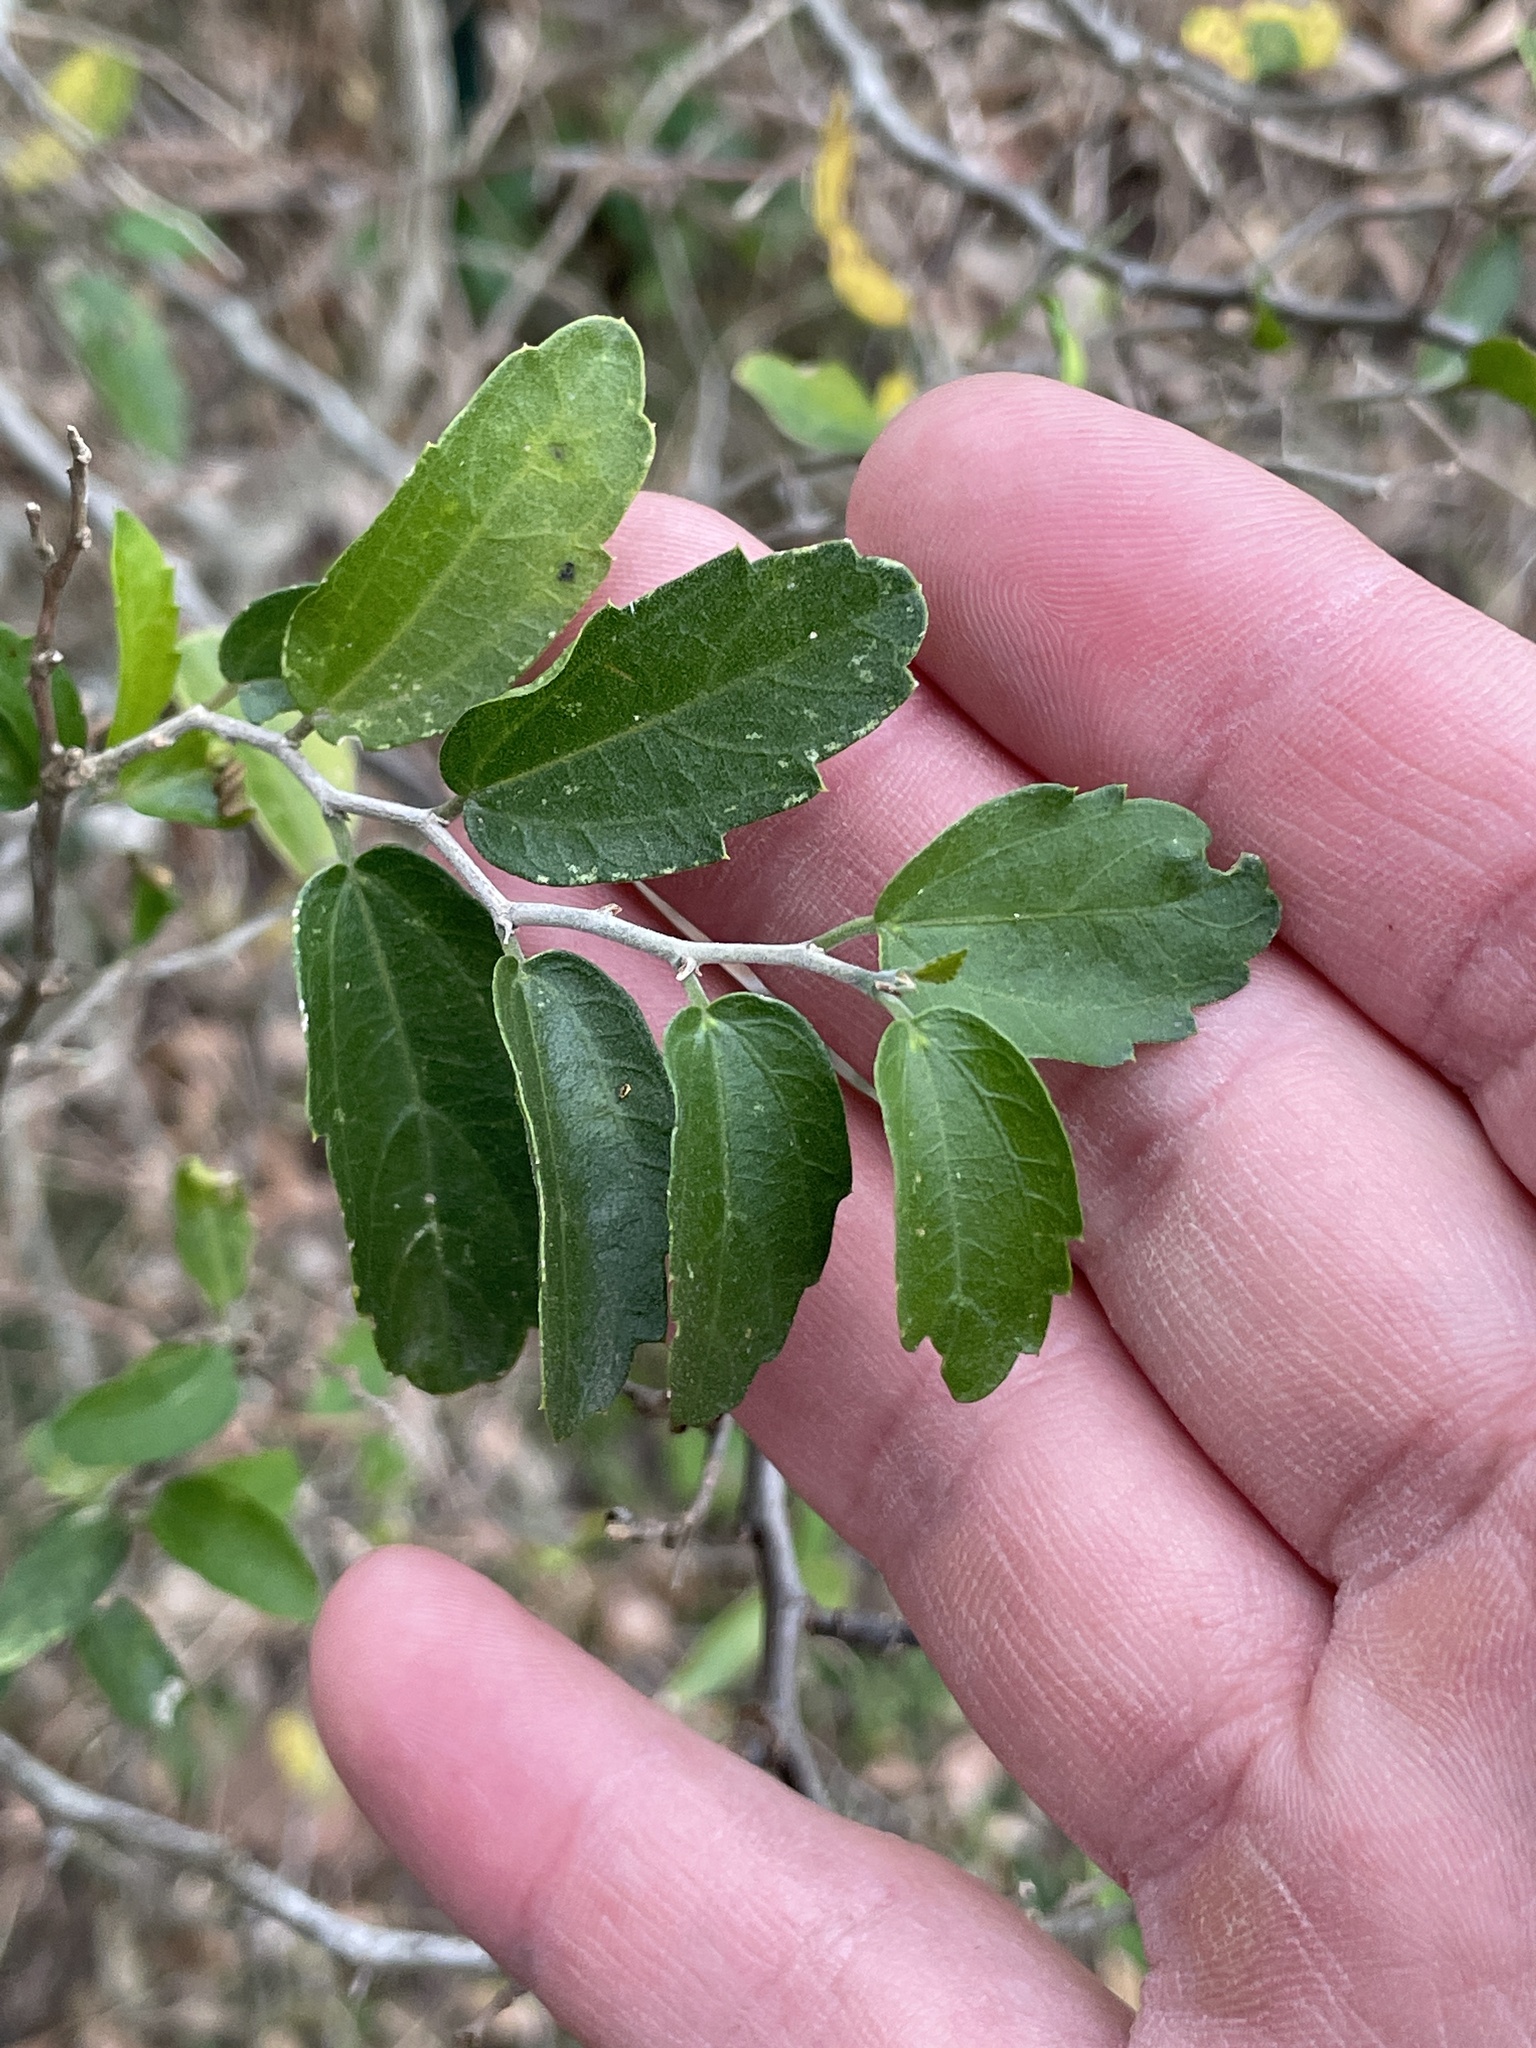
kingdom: Plantae
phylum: Tracheophyta
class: Magnoliopsida
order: Rosales
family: Cannabaceae
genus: Celtis
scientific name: Celtis pallida
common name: Desert hackberry
